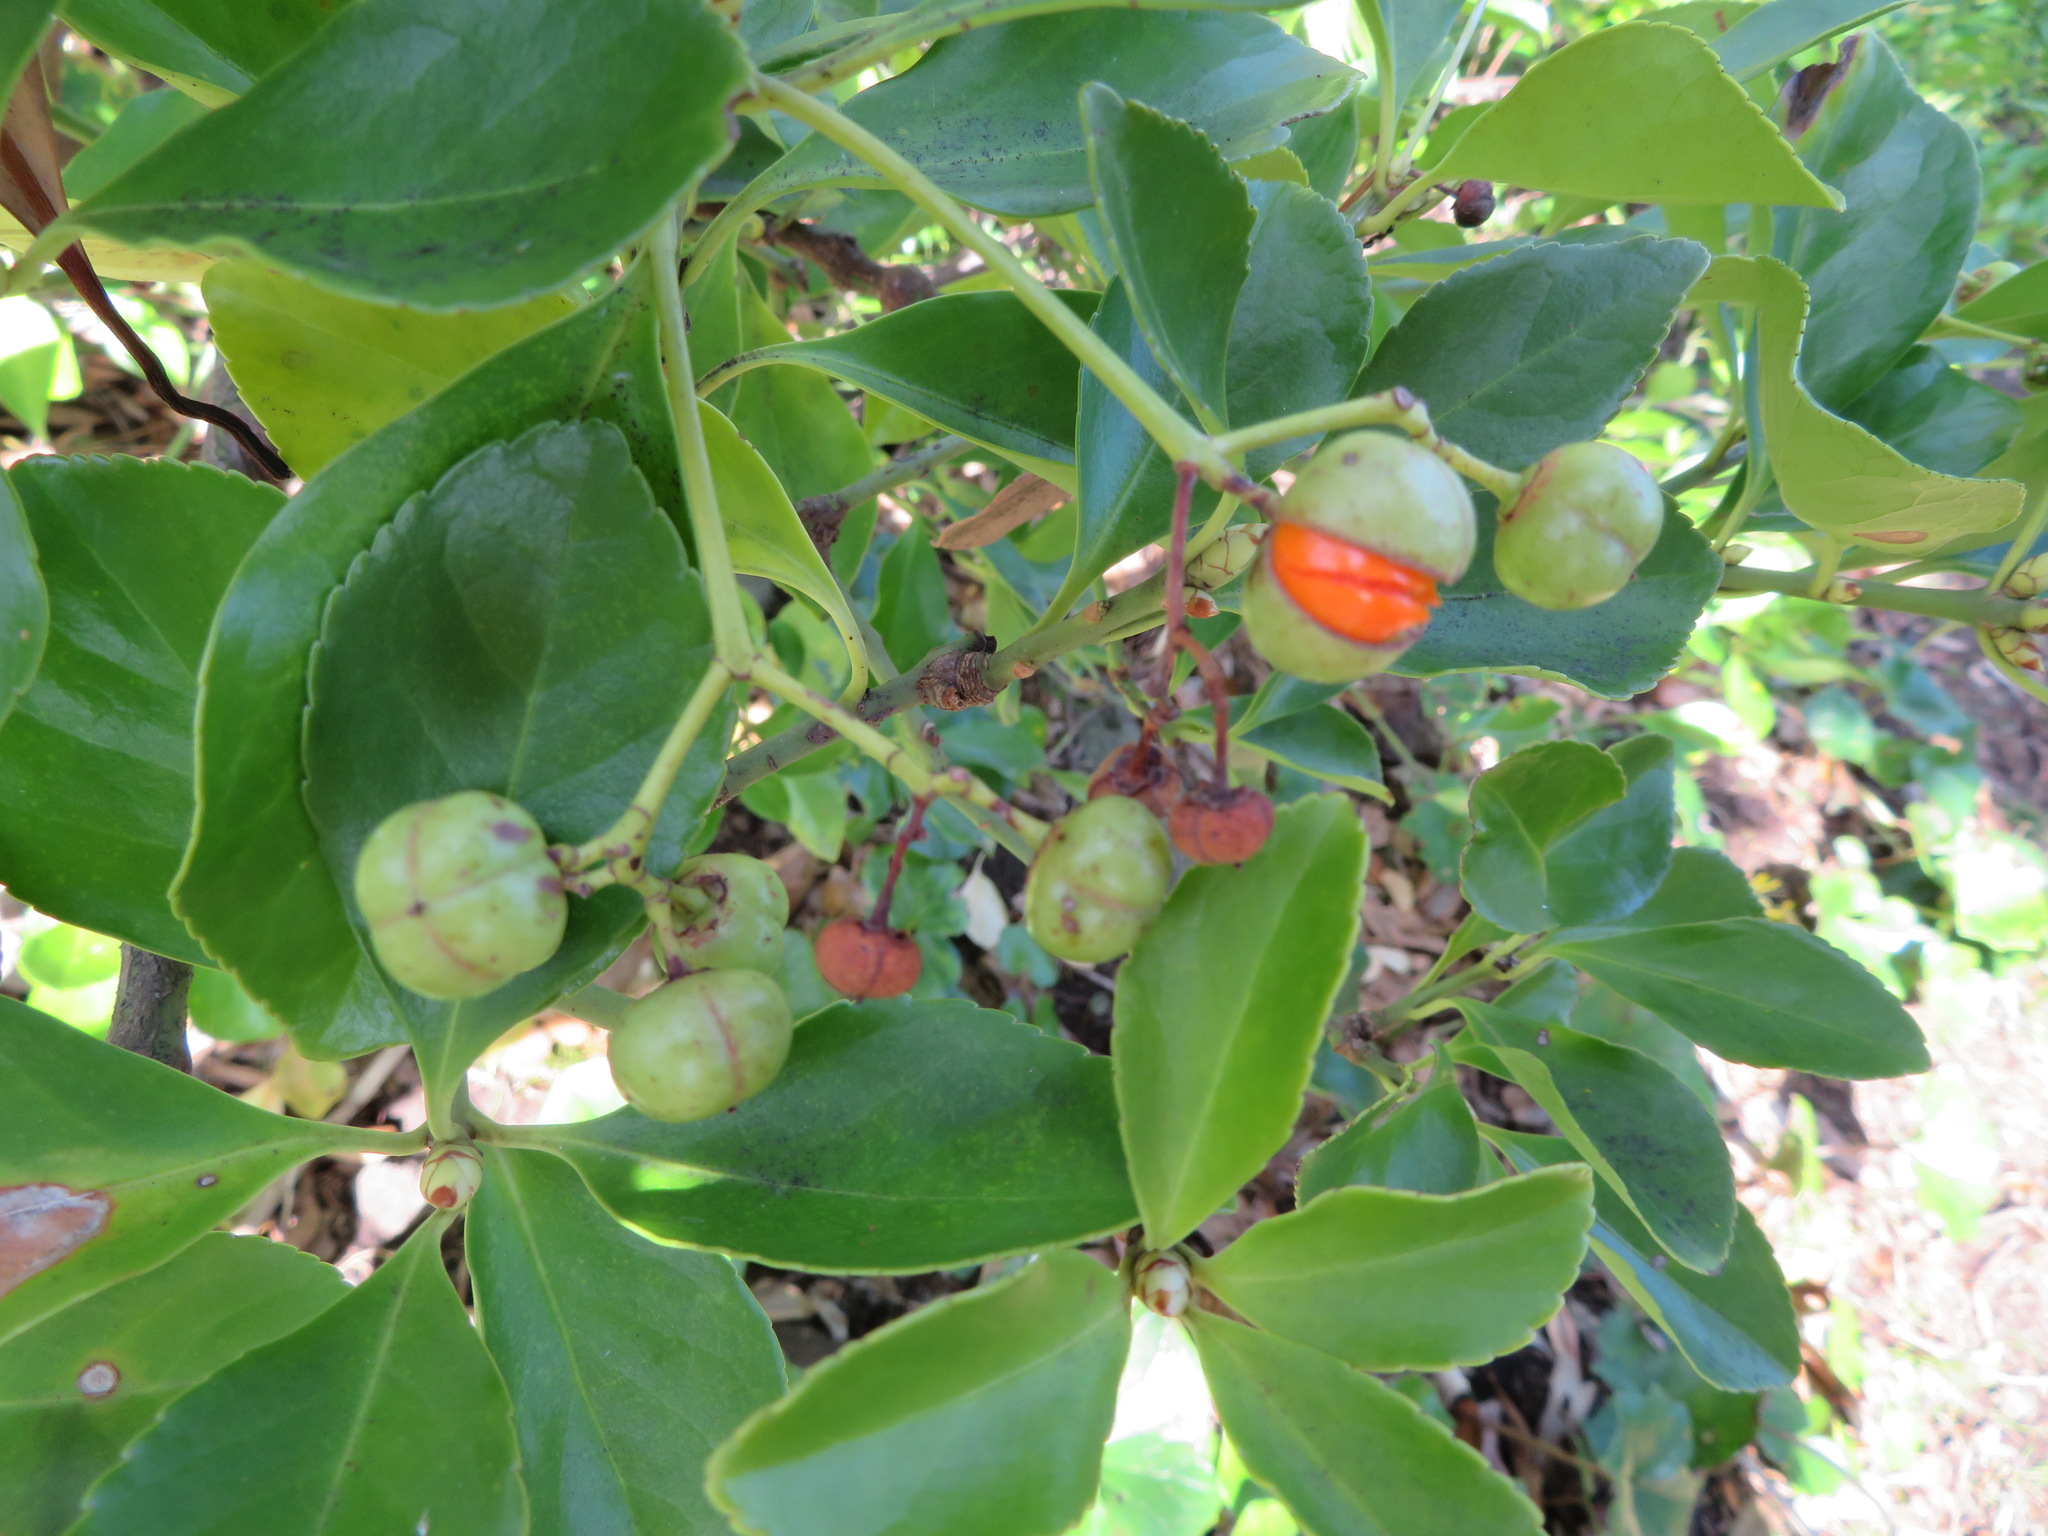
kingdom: Plantae
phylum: Tracheophyta
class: Magnoliopsida
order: Celastrales
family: Celastraceae
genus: Euonymus
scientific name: Euonymus japonicus
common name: Japanese spindletree
